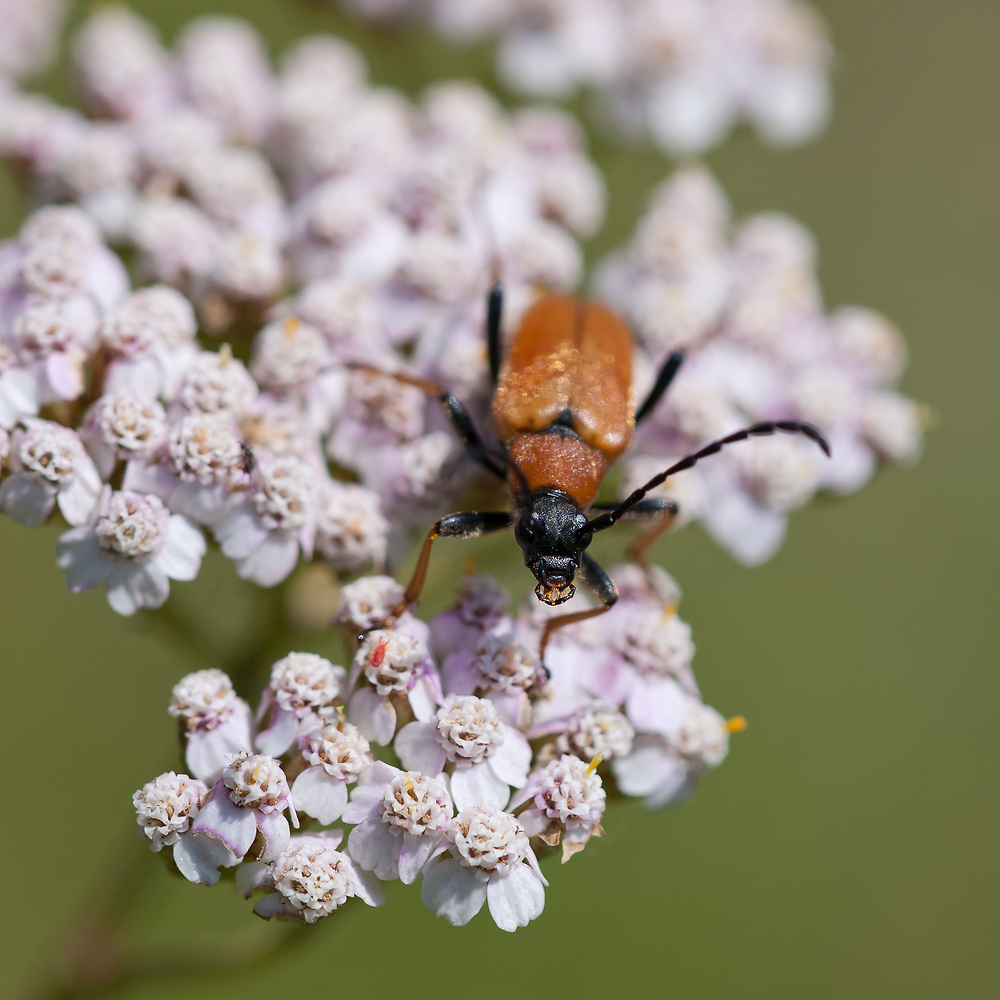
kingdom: Animalia
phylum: Arthropoda
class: Insecta
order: Coleoptera
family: Cerambycidae
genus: Stictoleptura
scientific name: Stictoleptura rubra
